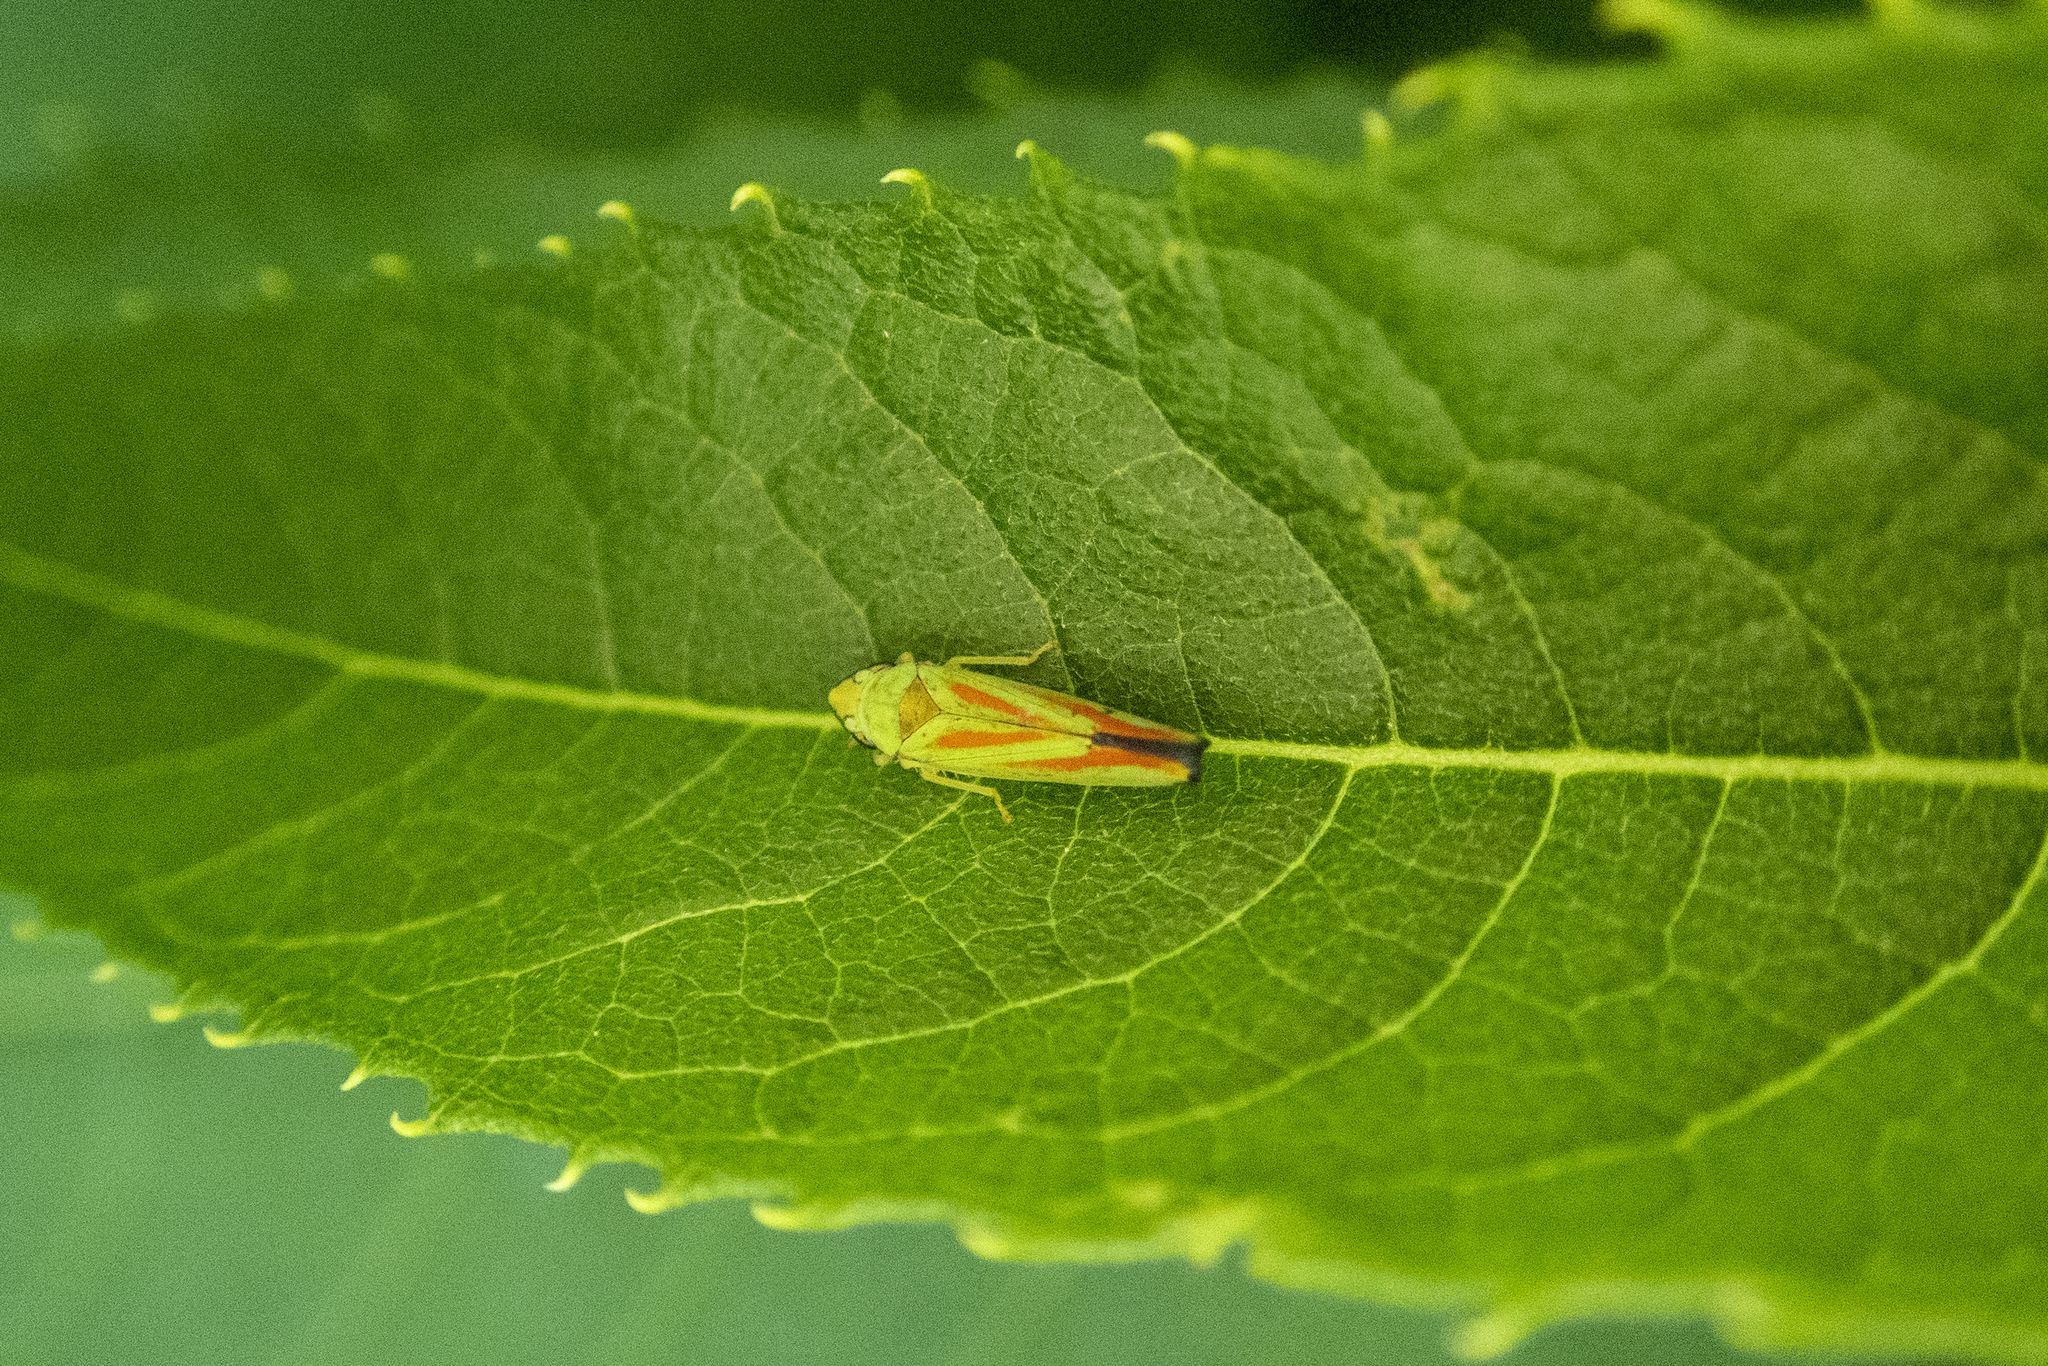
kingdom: Animalia
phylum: Arthropoda
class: Insecta
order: Hemiptera
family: Cicadellidae
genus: Graphocephala
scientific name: Graphocephala fennahi
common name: Rhododendron leafhopper
